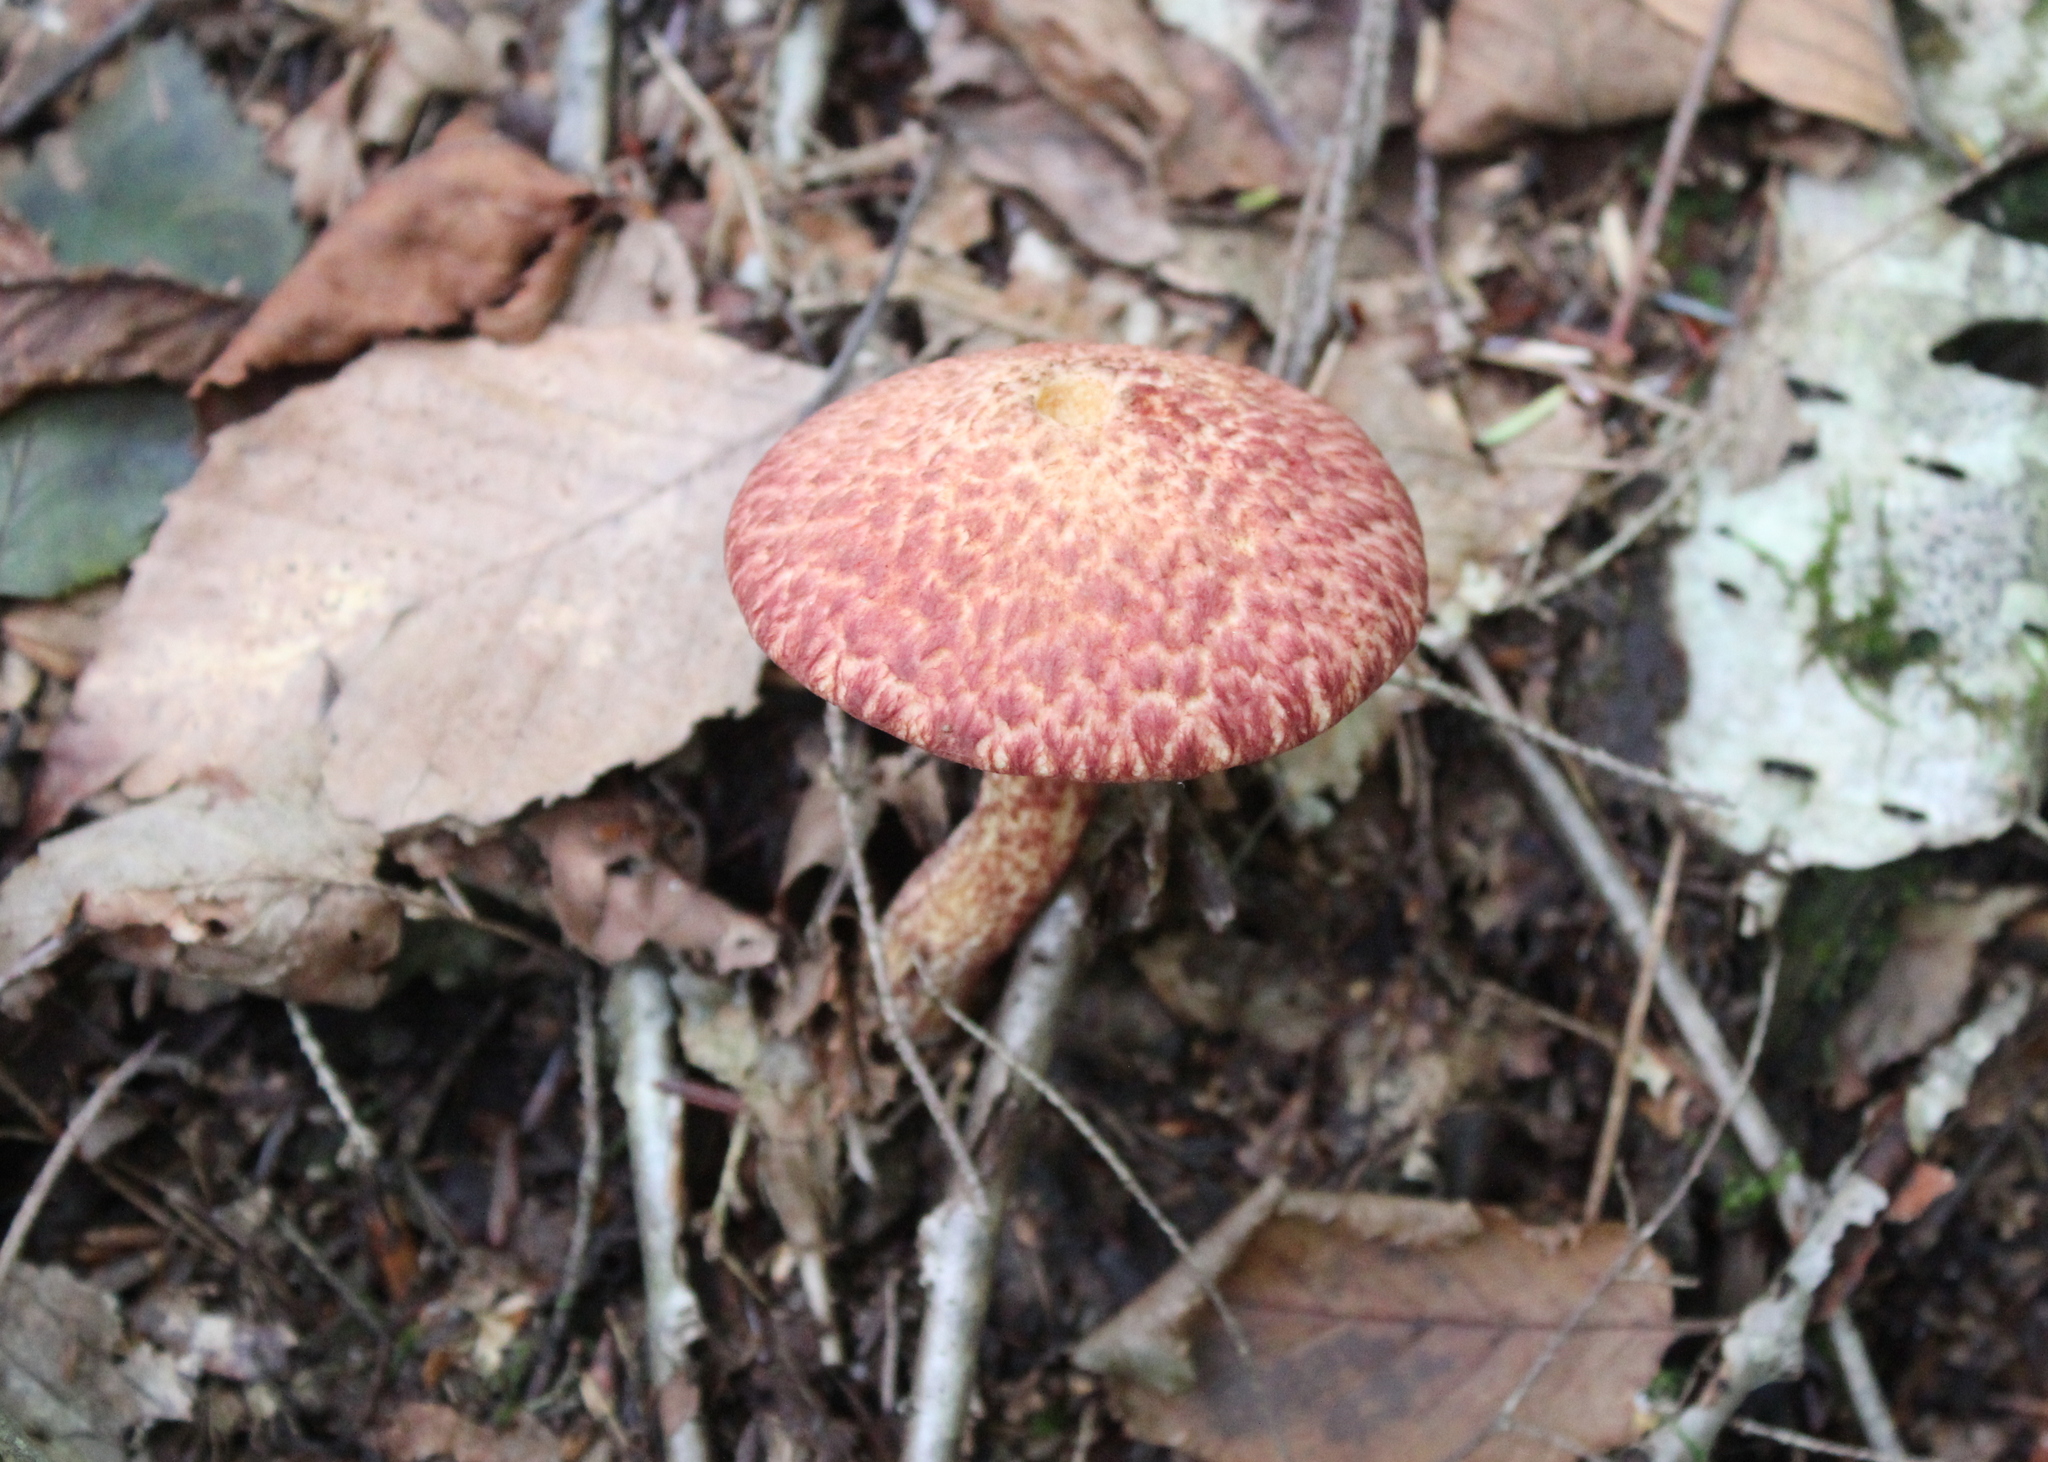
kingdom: Fungi
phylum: Basidiomycota
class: Agaricomycetes
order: Boletales
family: Suillaceae
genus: Suillus
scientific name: Suillus spraguei
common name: Painted suillus
